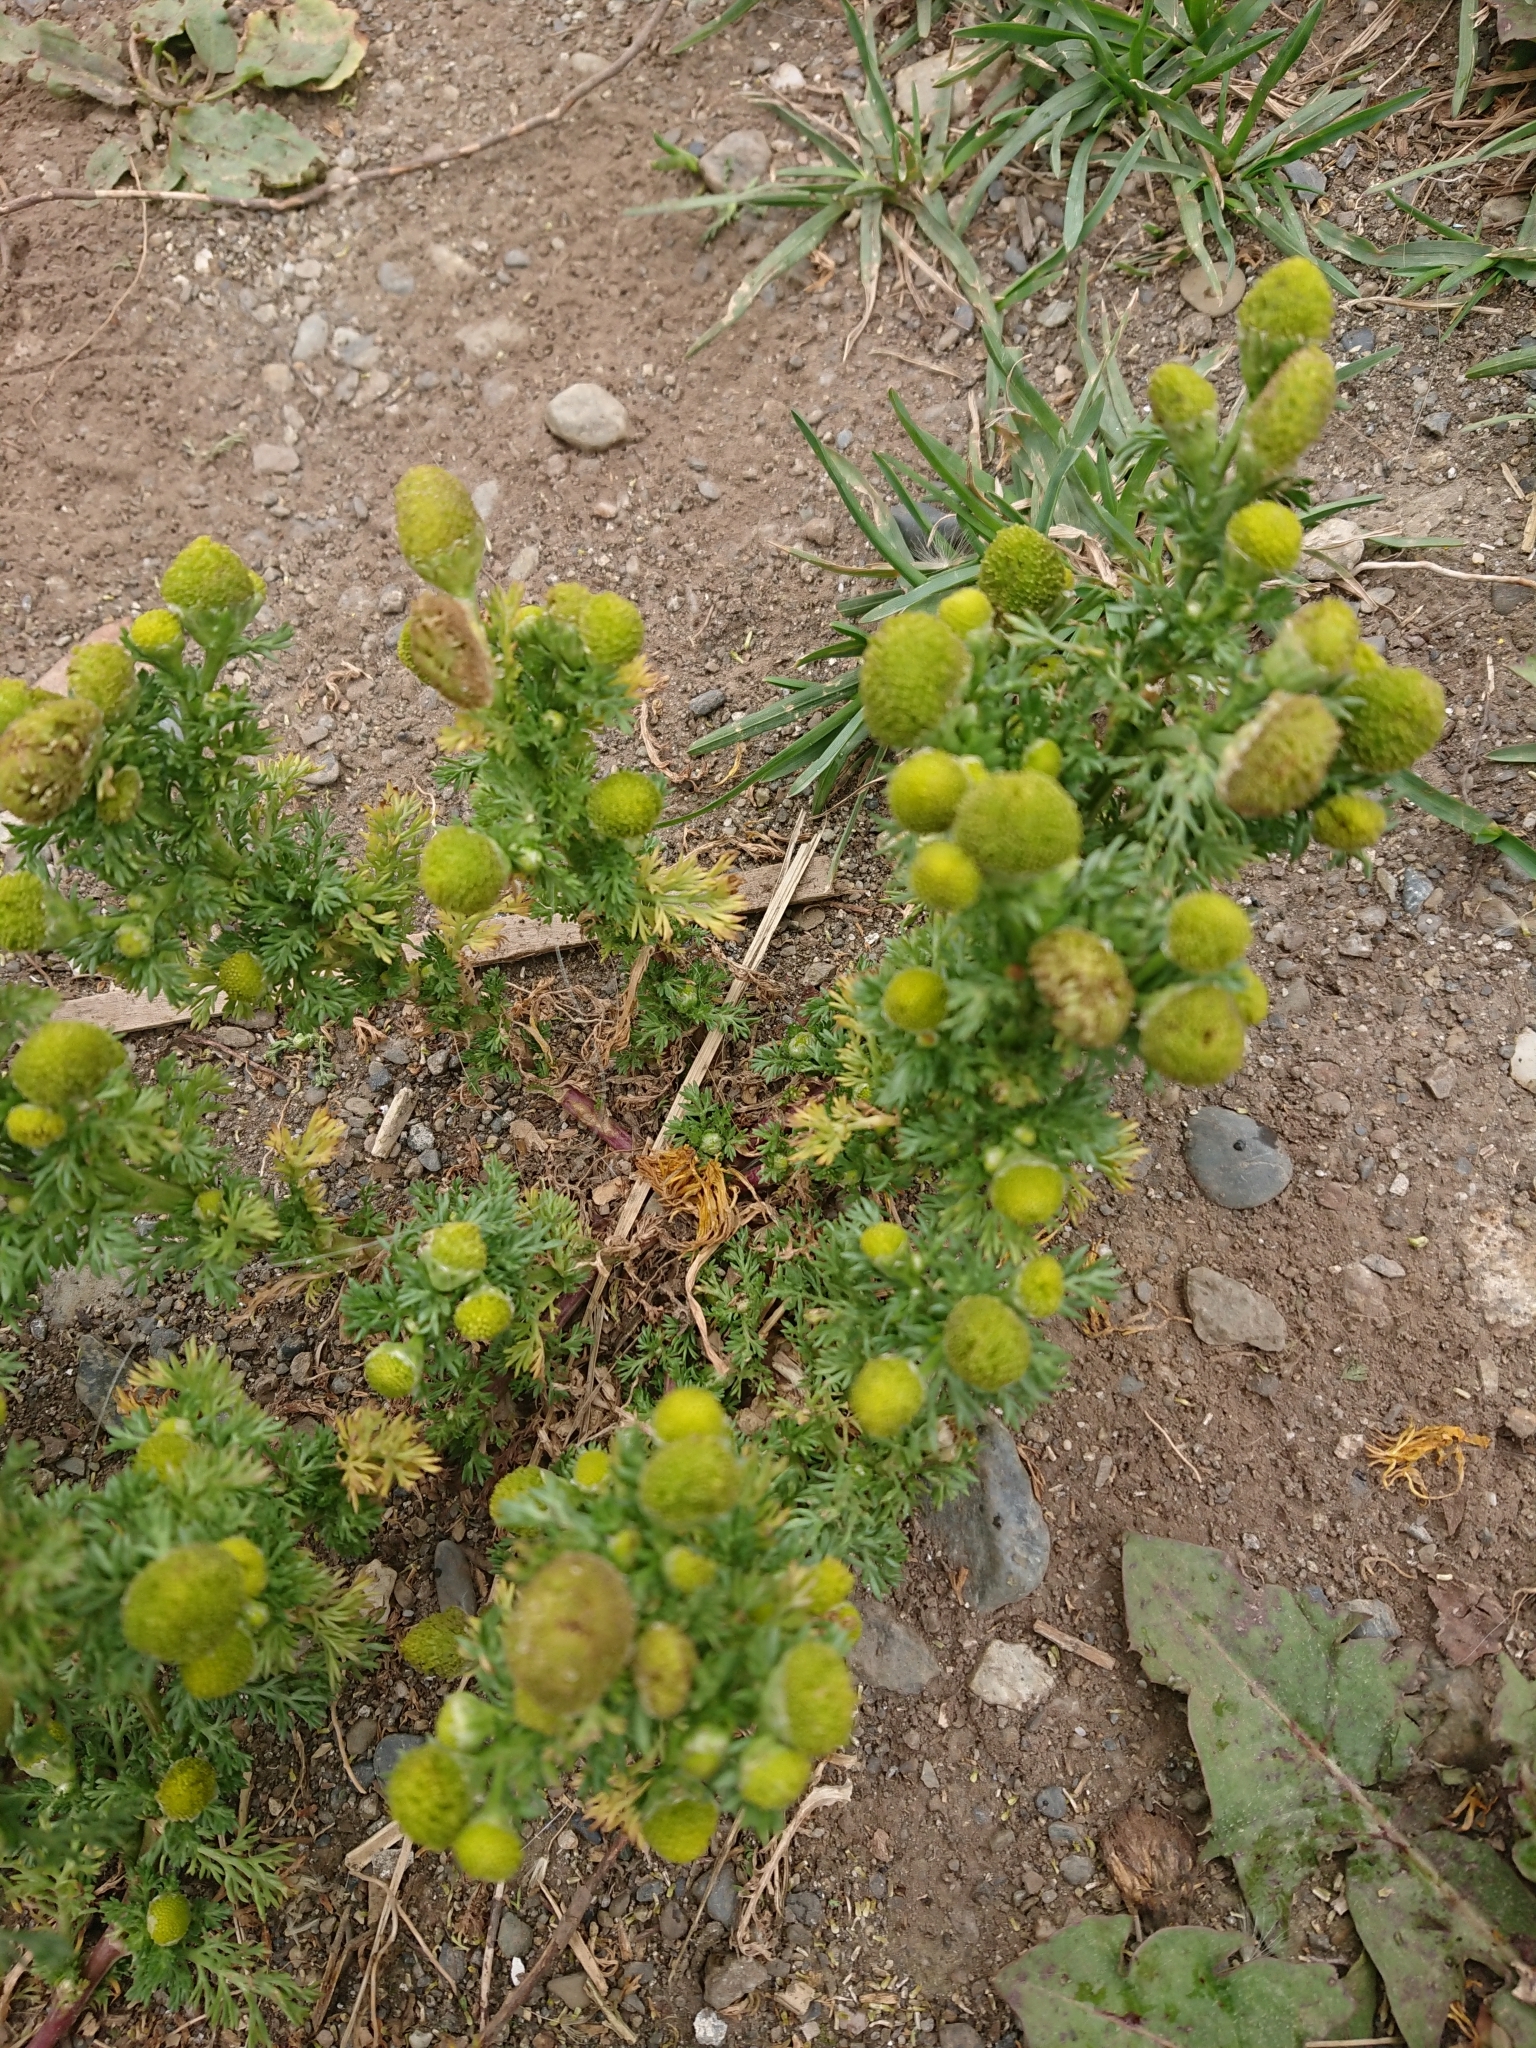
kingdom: Plantae
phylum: Tracheophyta
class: Magnoliopsida
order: Asterales
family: Asteraceae
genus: Matricaria
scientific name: Matricaria discoidea
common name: Disc mayweed
